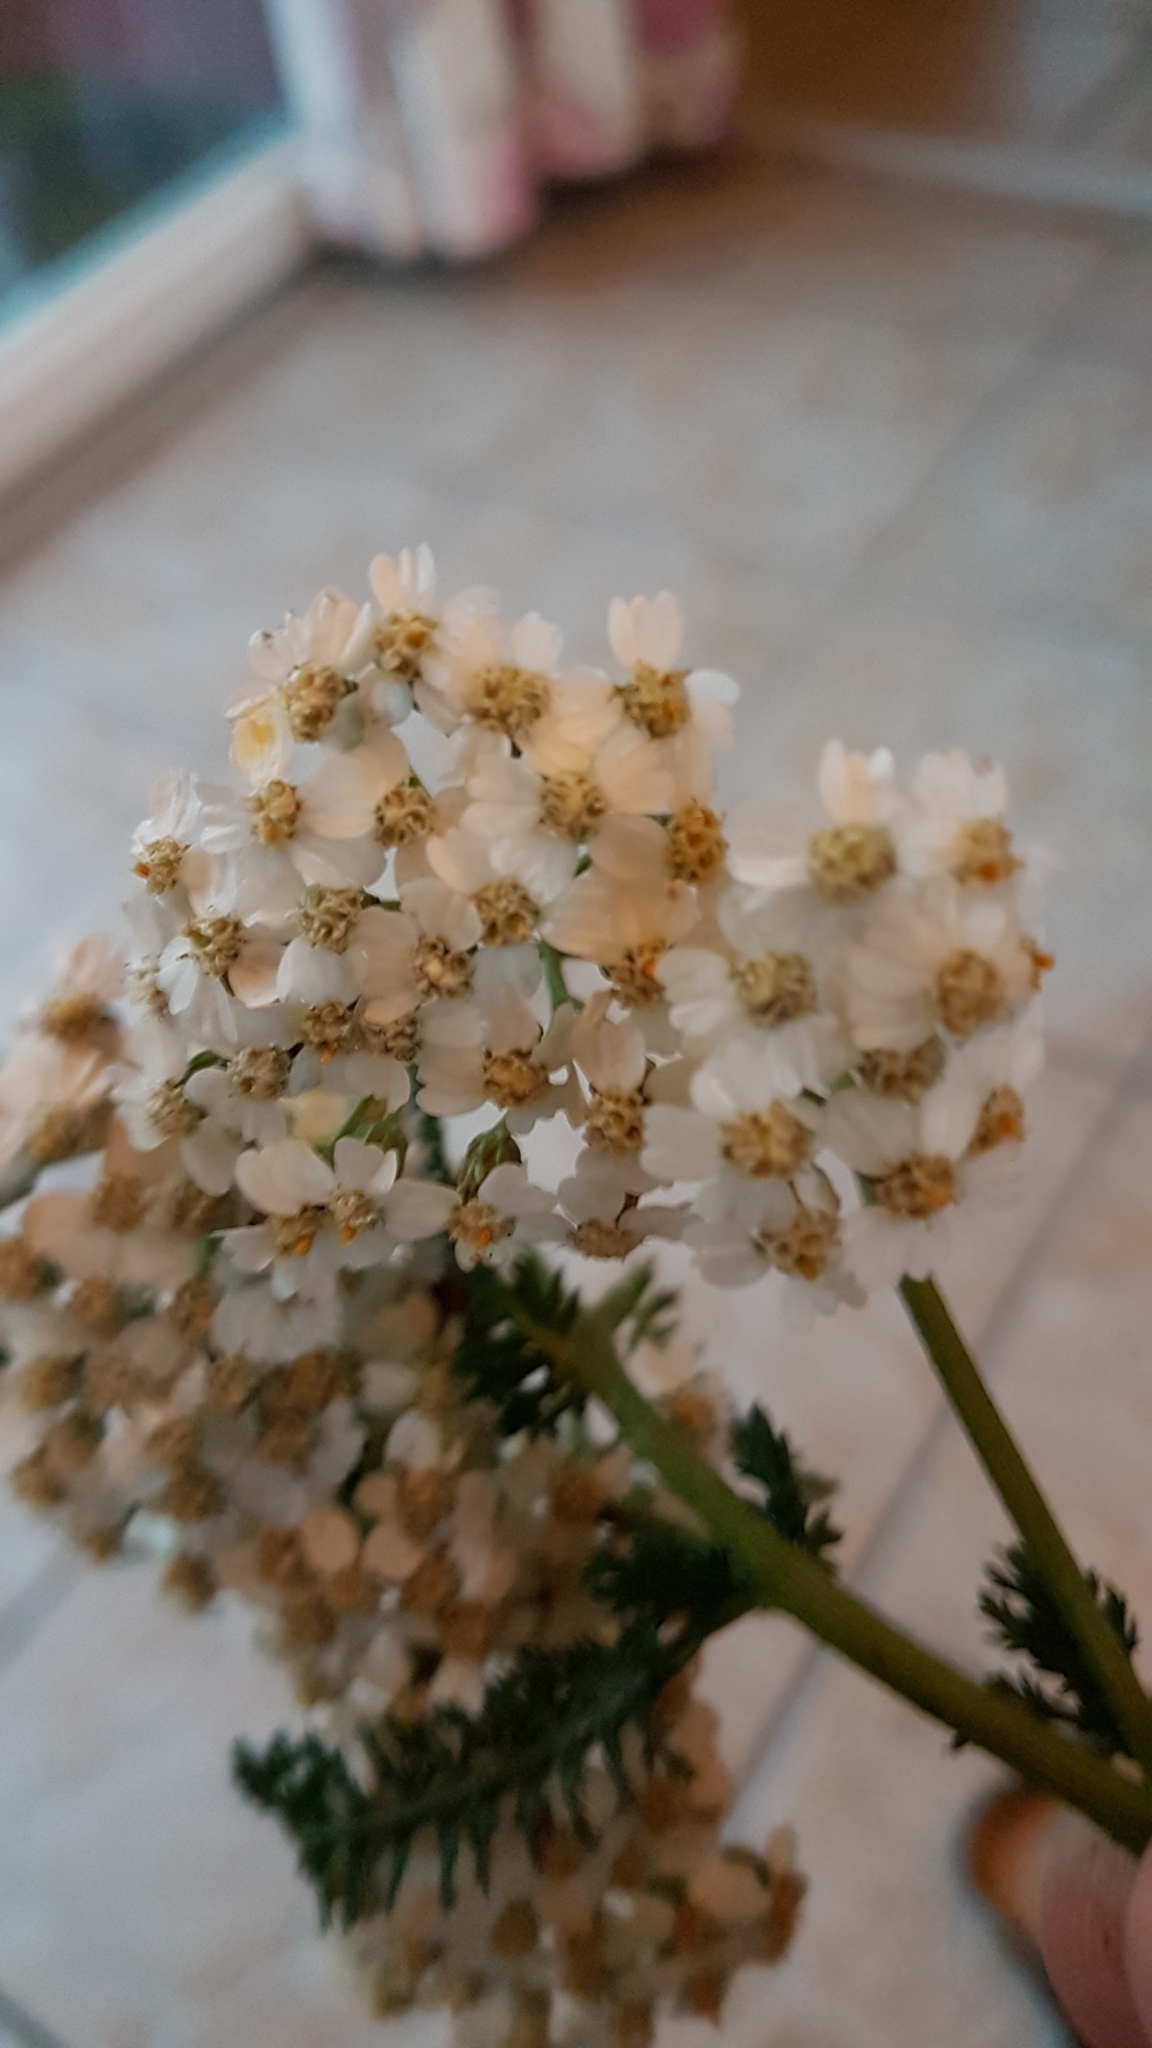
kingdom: Plantae
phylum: Tracheophyta
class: Magnoliopsida
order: Asterales
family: Asteraceae
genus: Achillea
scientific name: Achillea millefolium
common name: Yarrow
